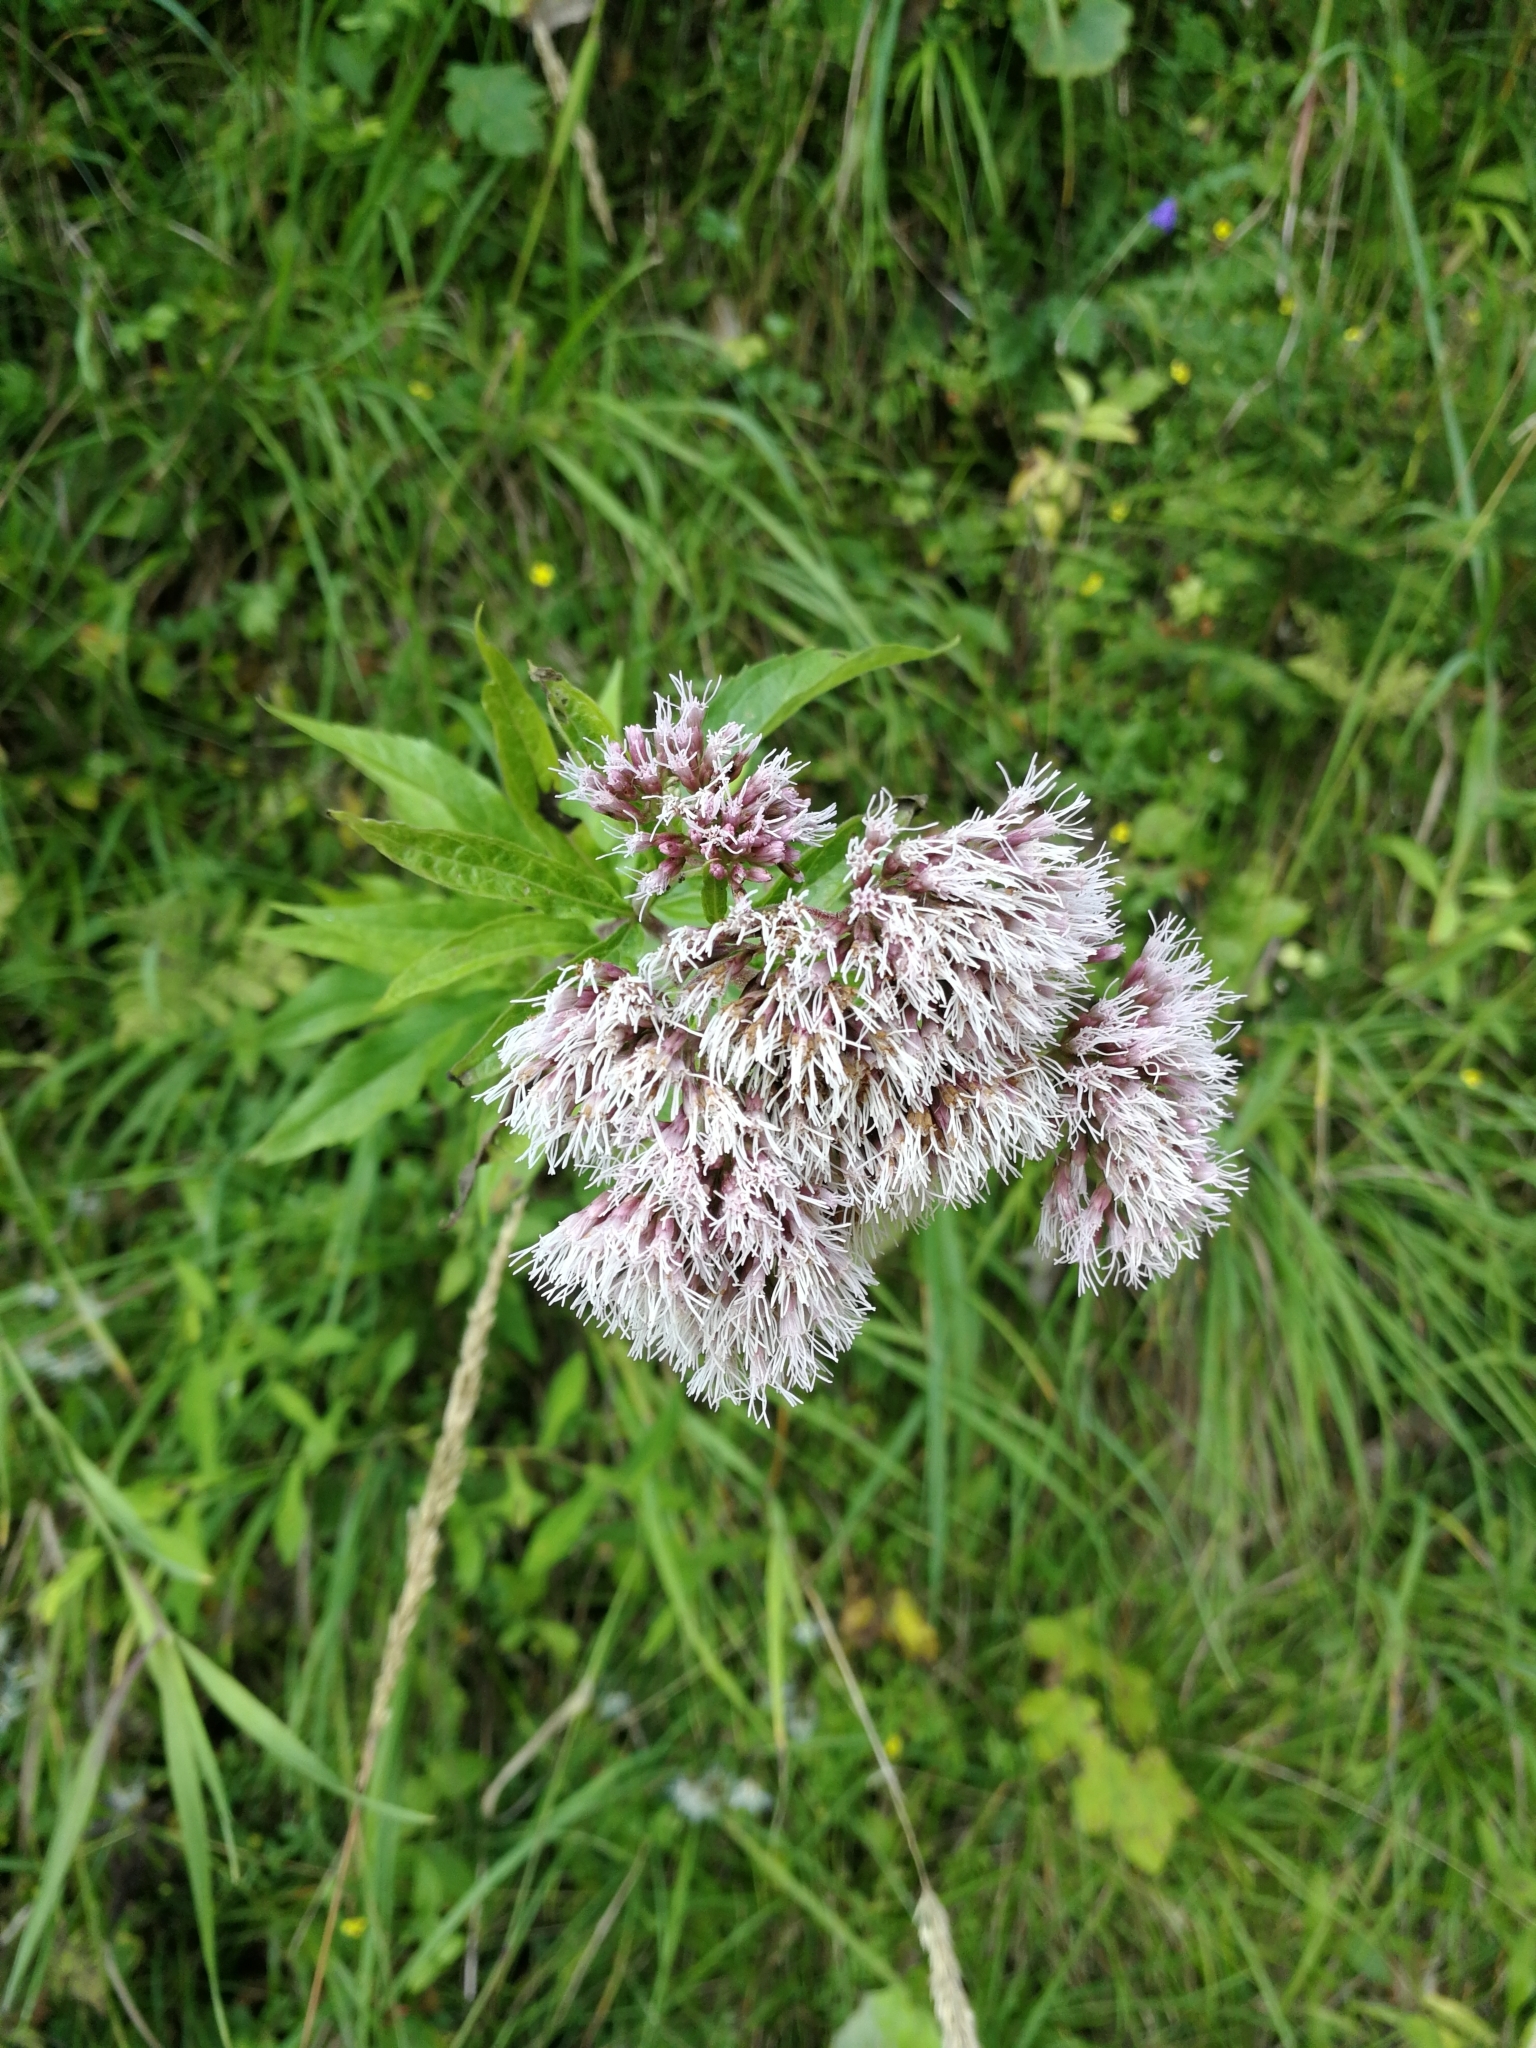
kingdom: Plantae
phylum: Tracheophyta
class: Magnoliopsida
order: Asterales
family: Asteraceae
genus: Eupatorium
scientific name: Eupatorium cannabinum
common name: Hemp-agrimony
